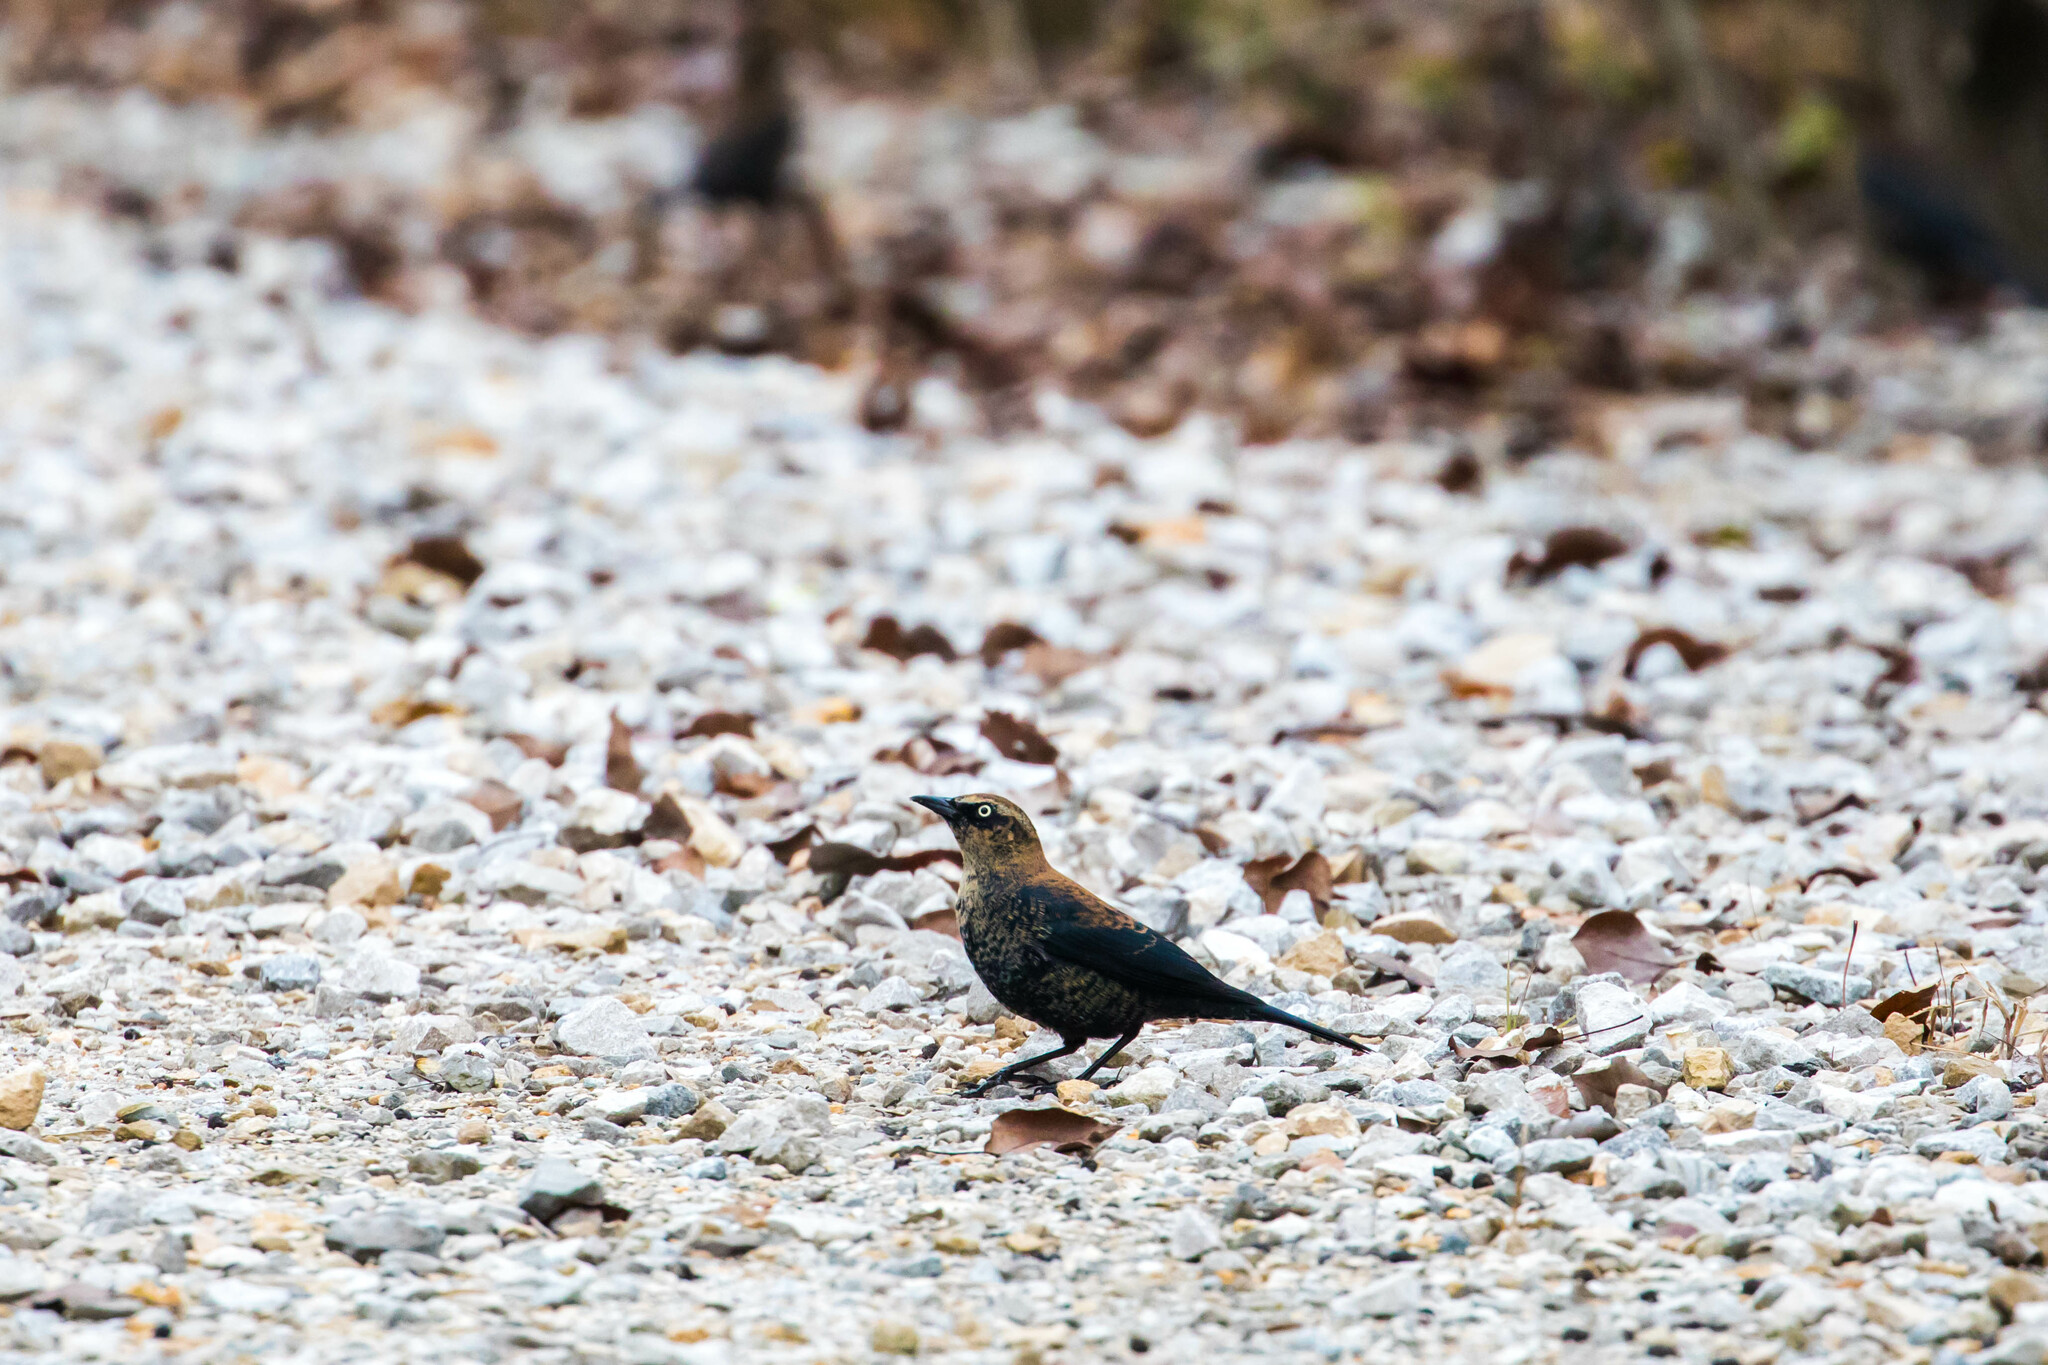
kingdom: Animalia
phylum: Chordata
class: Aves
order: Passeriformes
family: Icteridae
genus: Euphagus
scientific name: Euphagus carolinus
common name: Rusty blackbird
